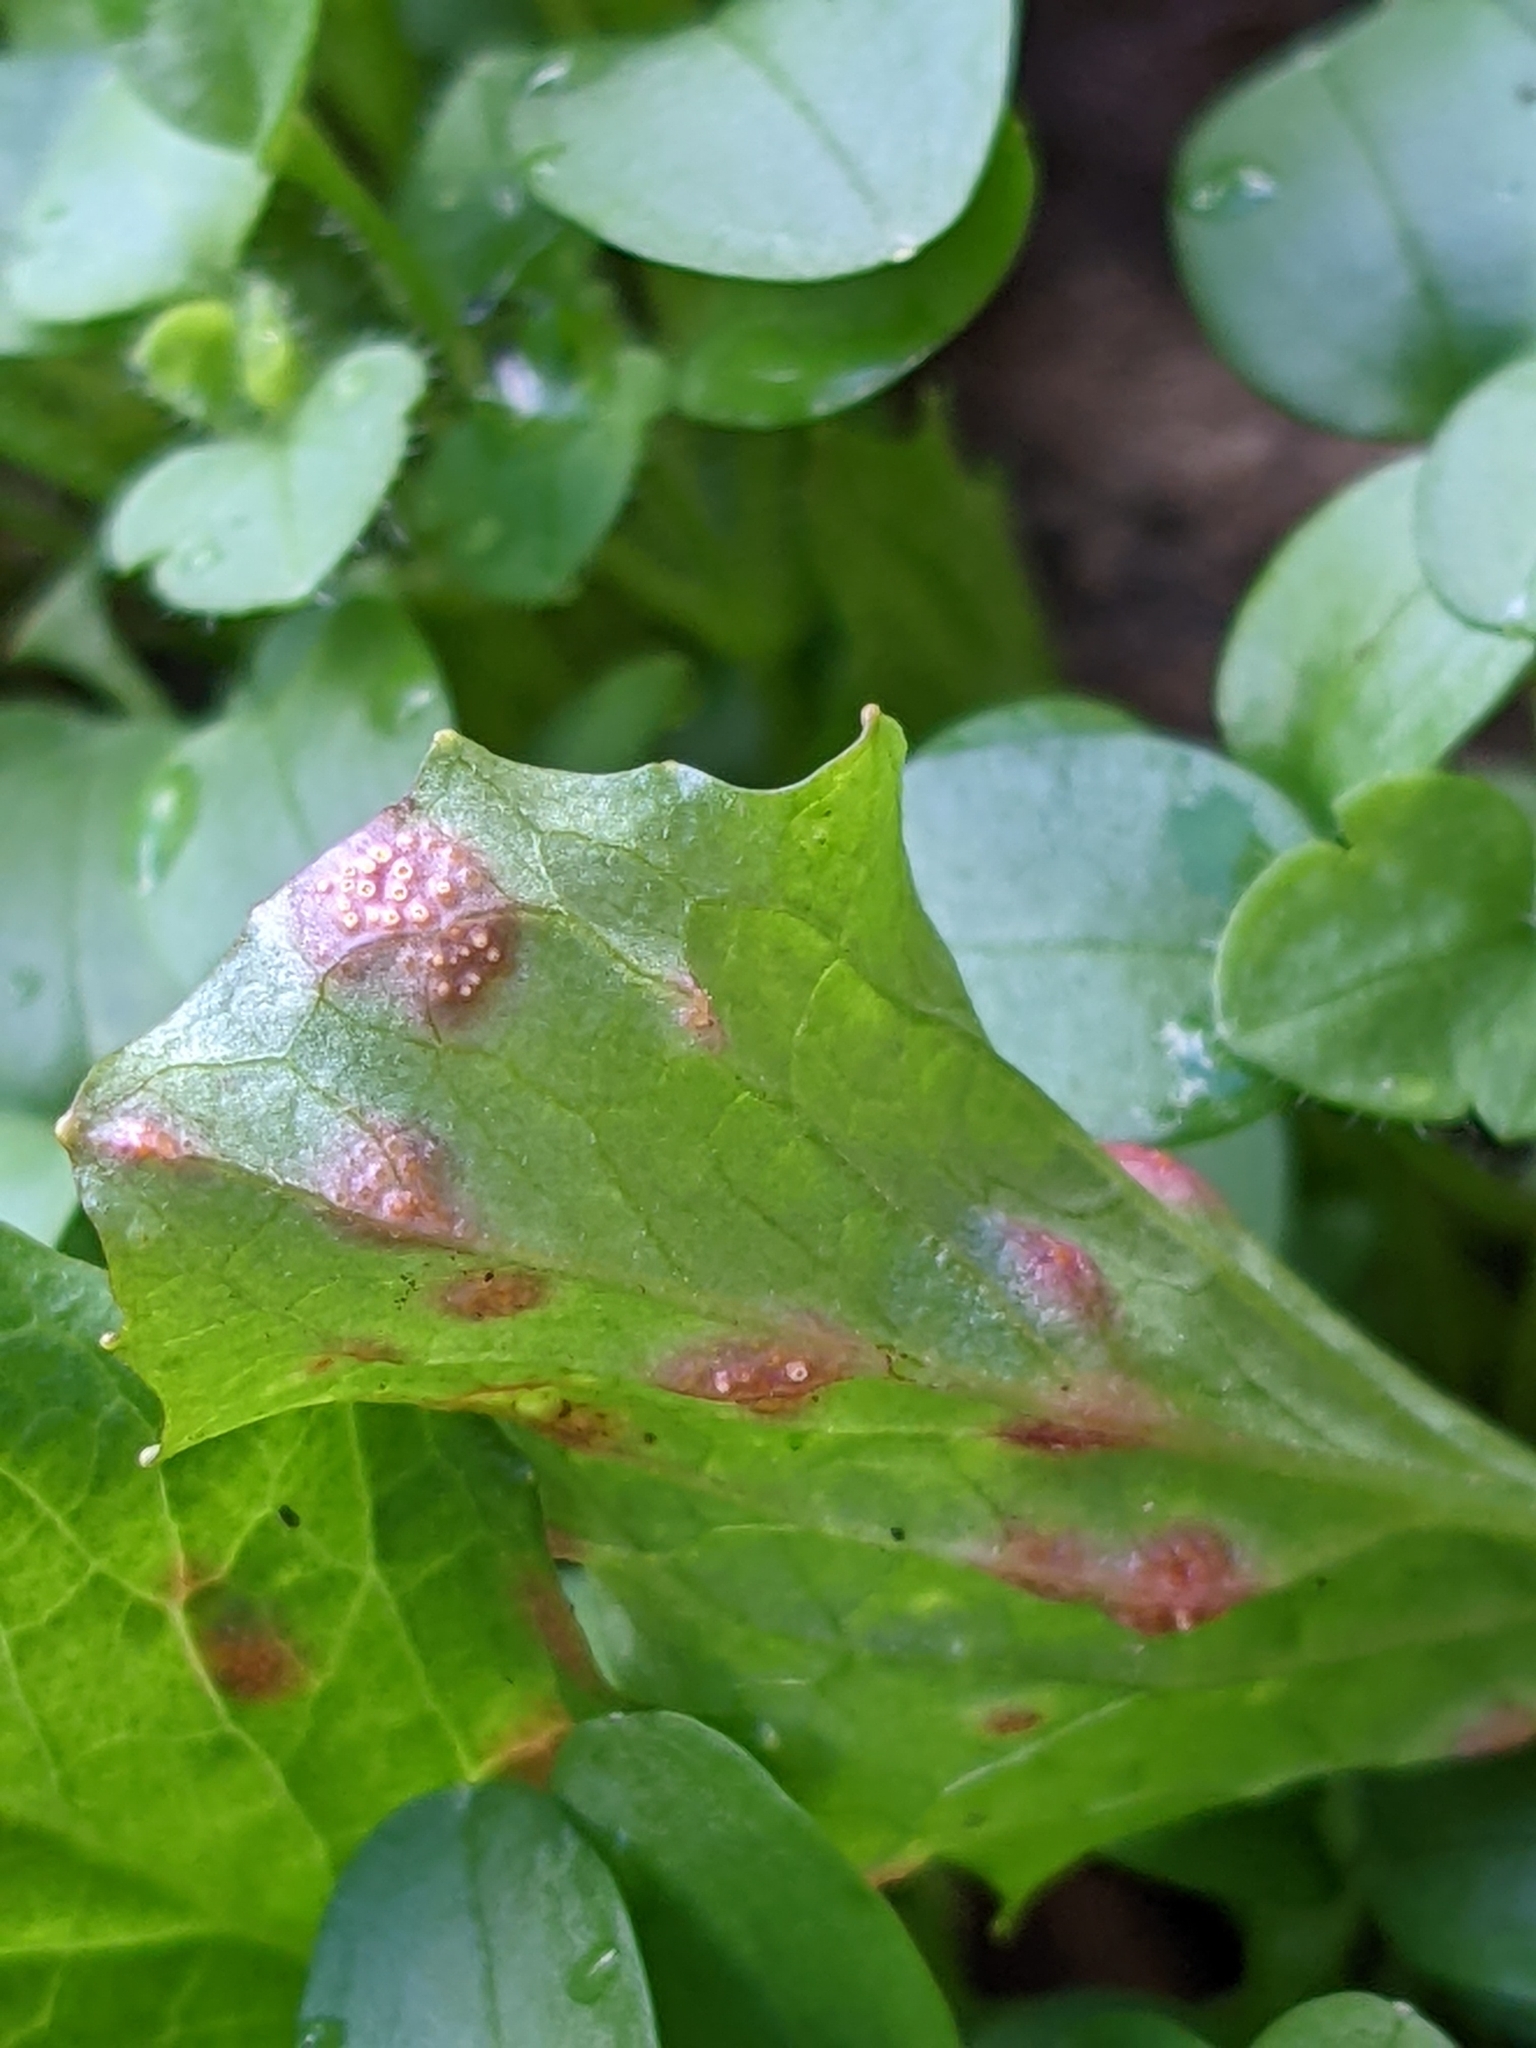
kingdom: Fungi
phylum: Basidiomycota
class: Pucciniomycetes
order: Pucciniales
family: Pucciniaceae
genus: Puccinia
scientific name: Puccinia lapsanae
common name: Nipplewort rust
